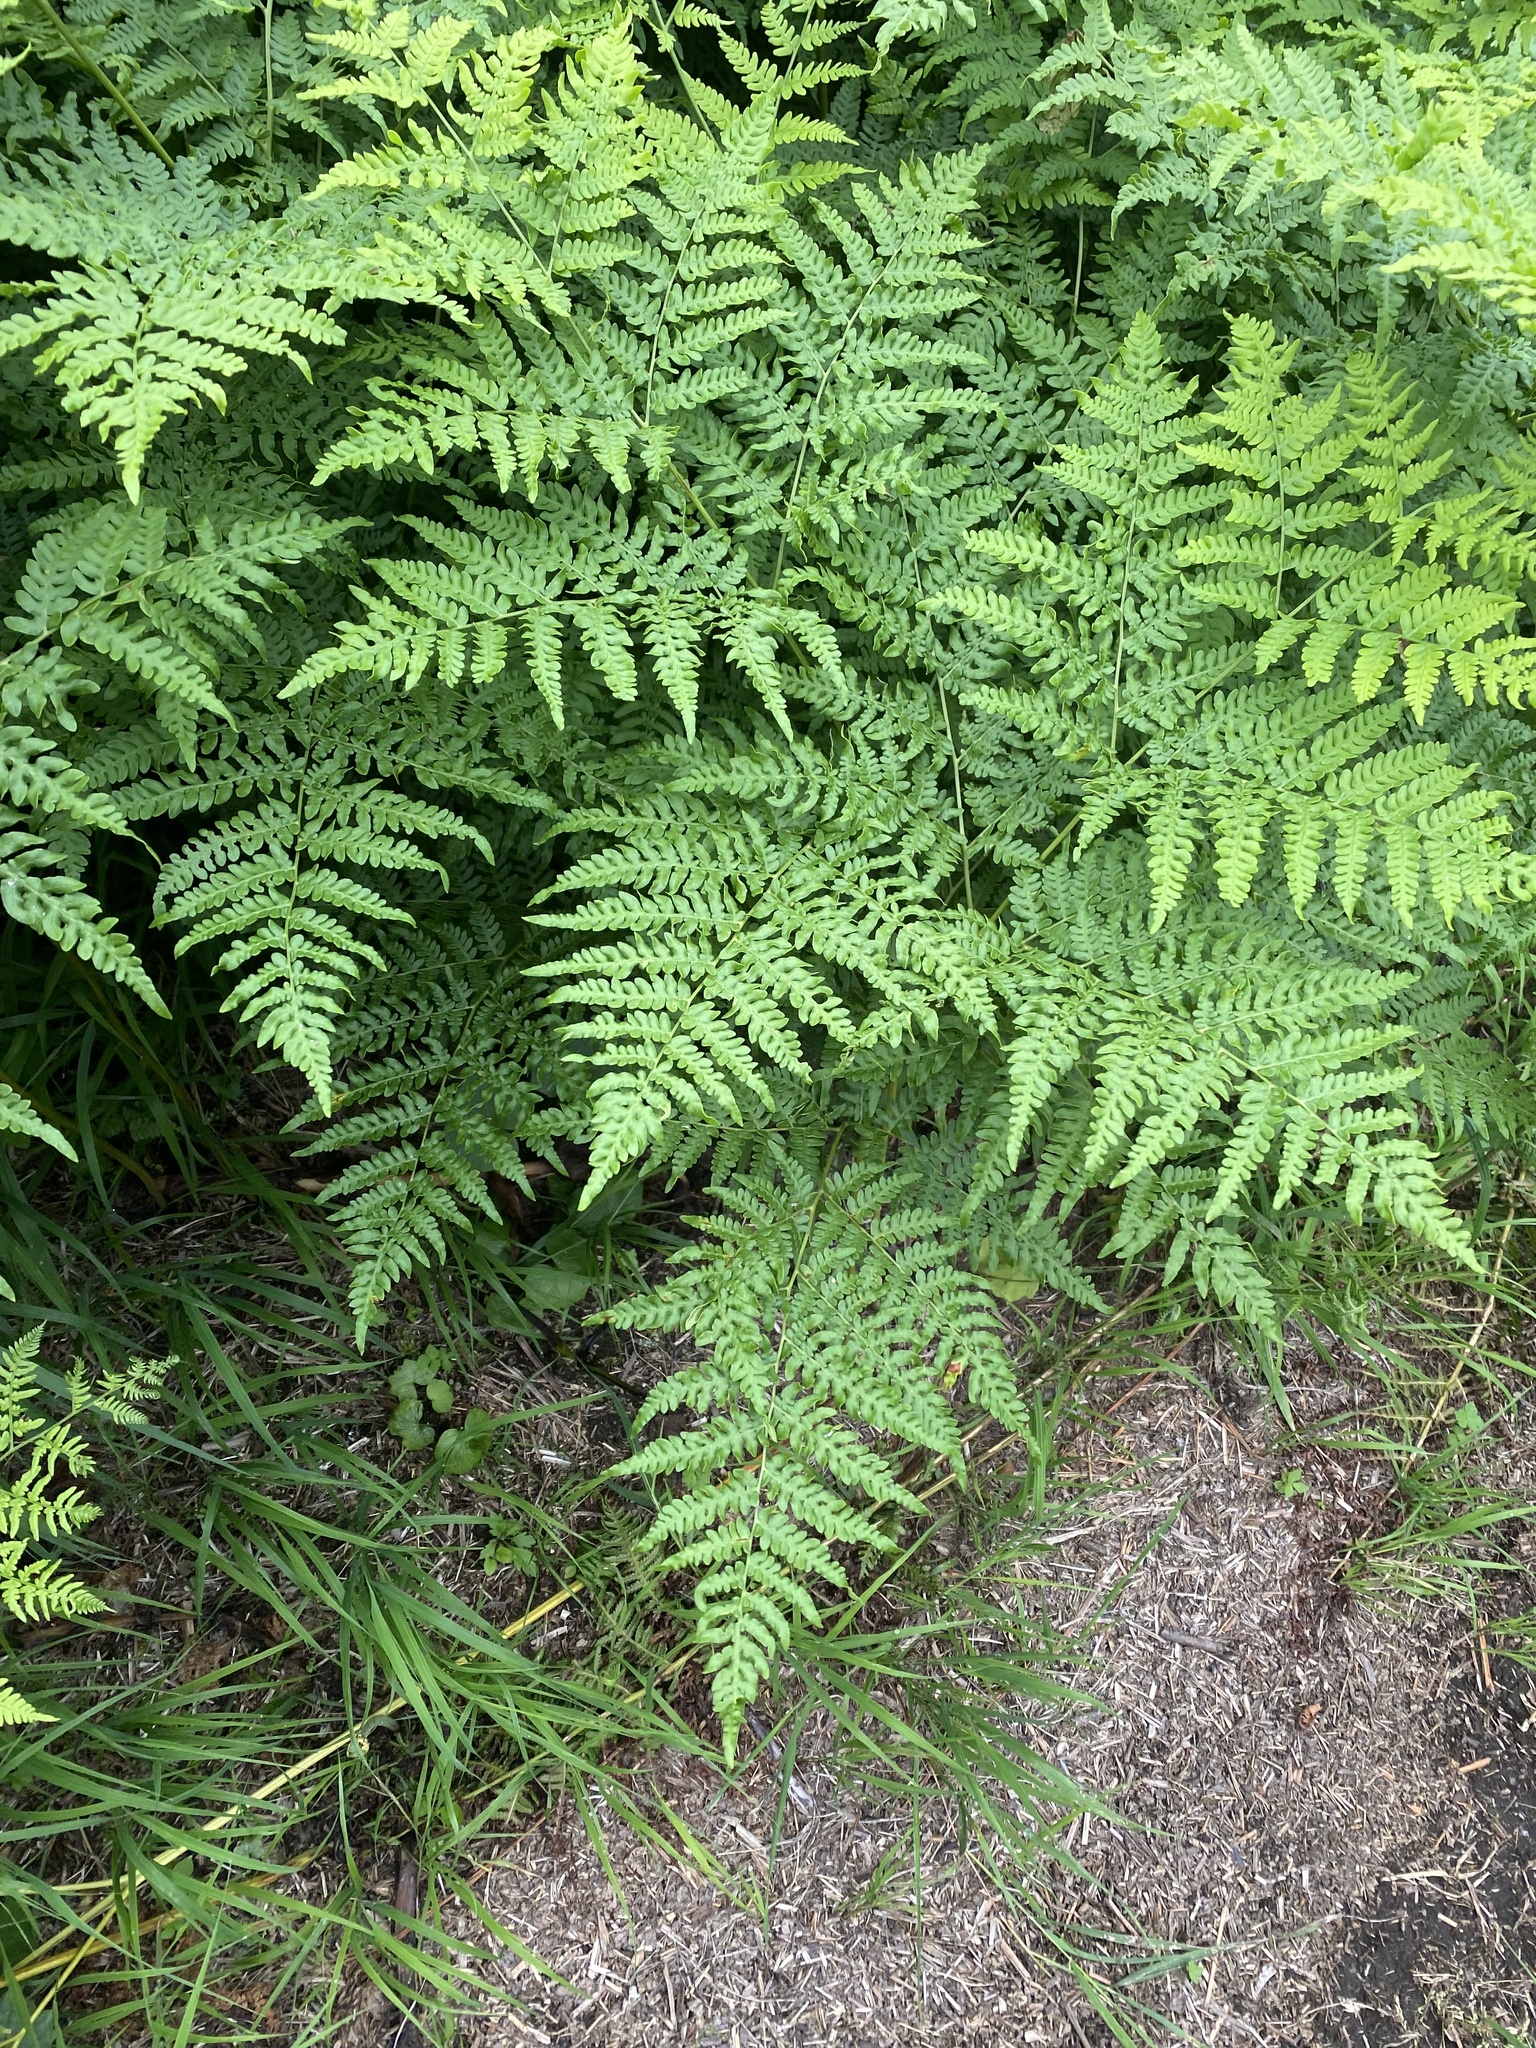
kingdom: Plantae
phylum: Tracheophyta
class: Polypodiopsida
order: Polypodiales
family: Dennstaedtiaceae
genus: Pteridium
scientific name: Pteridium aquilinum
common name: Bracken
